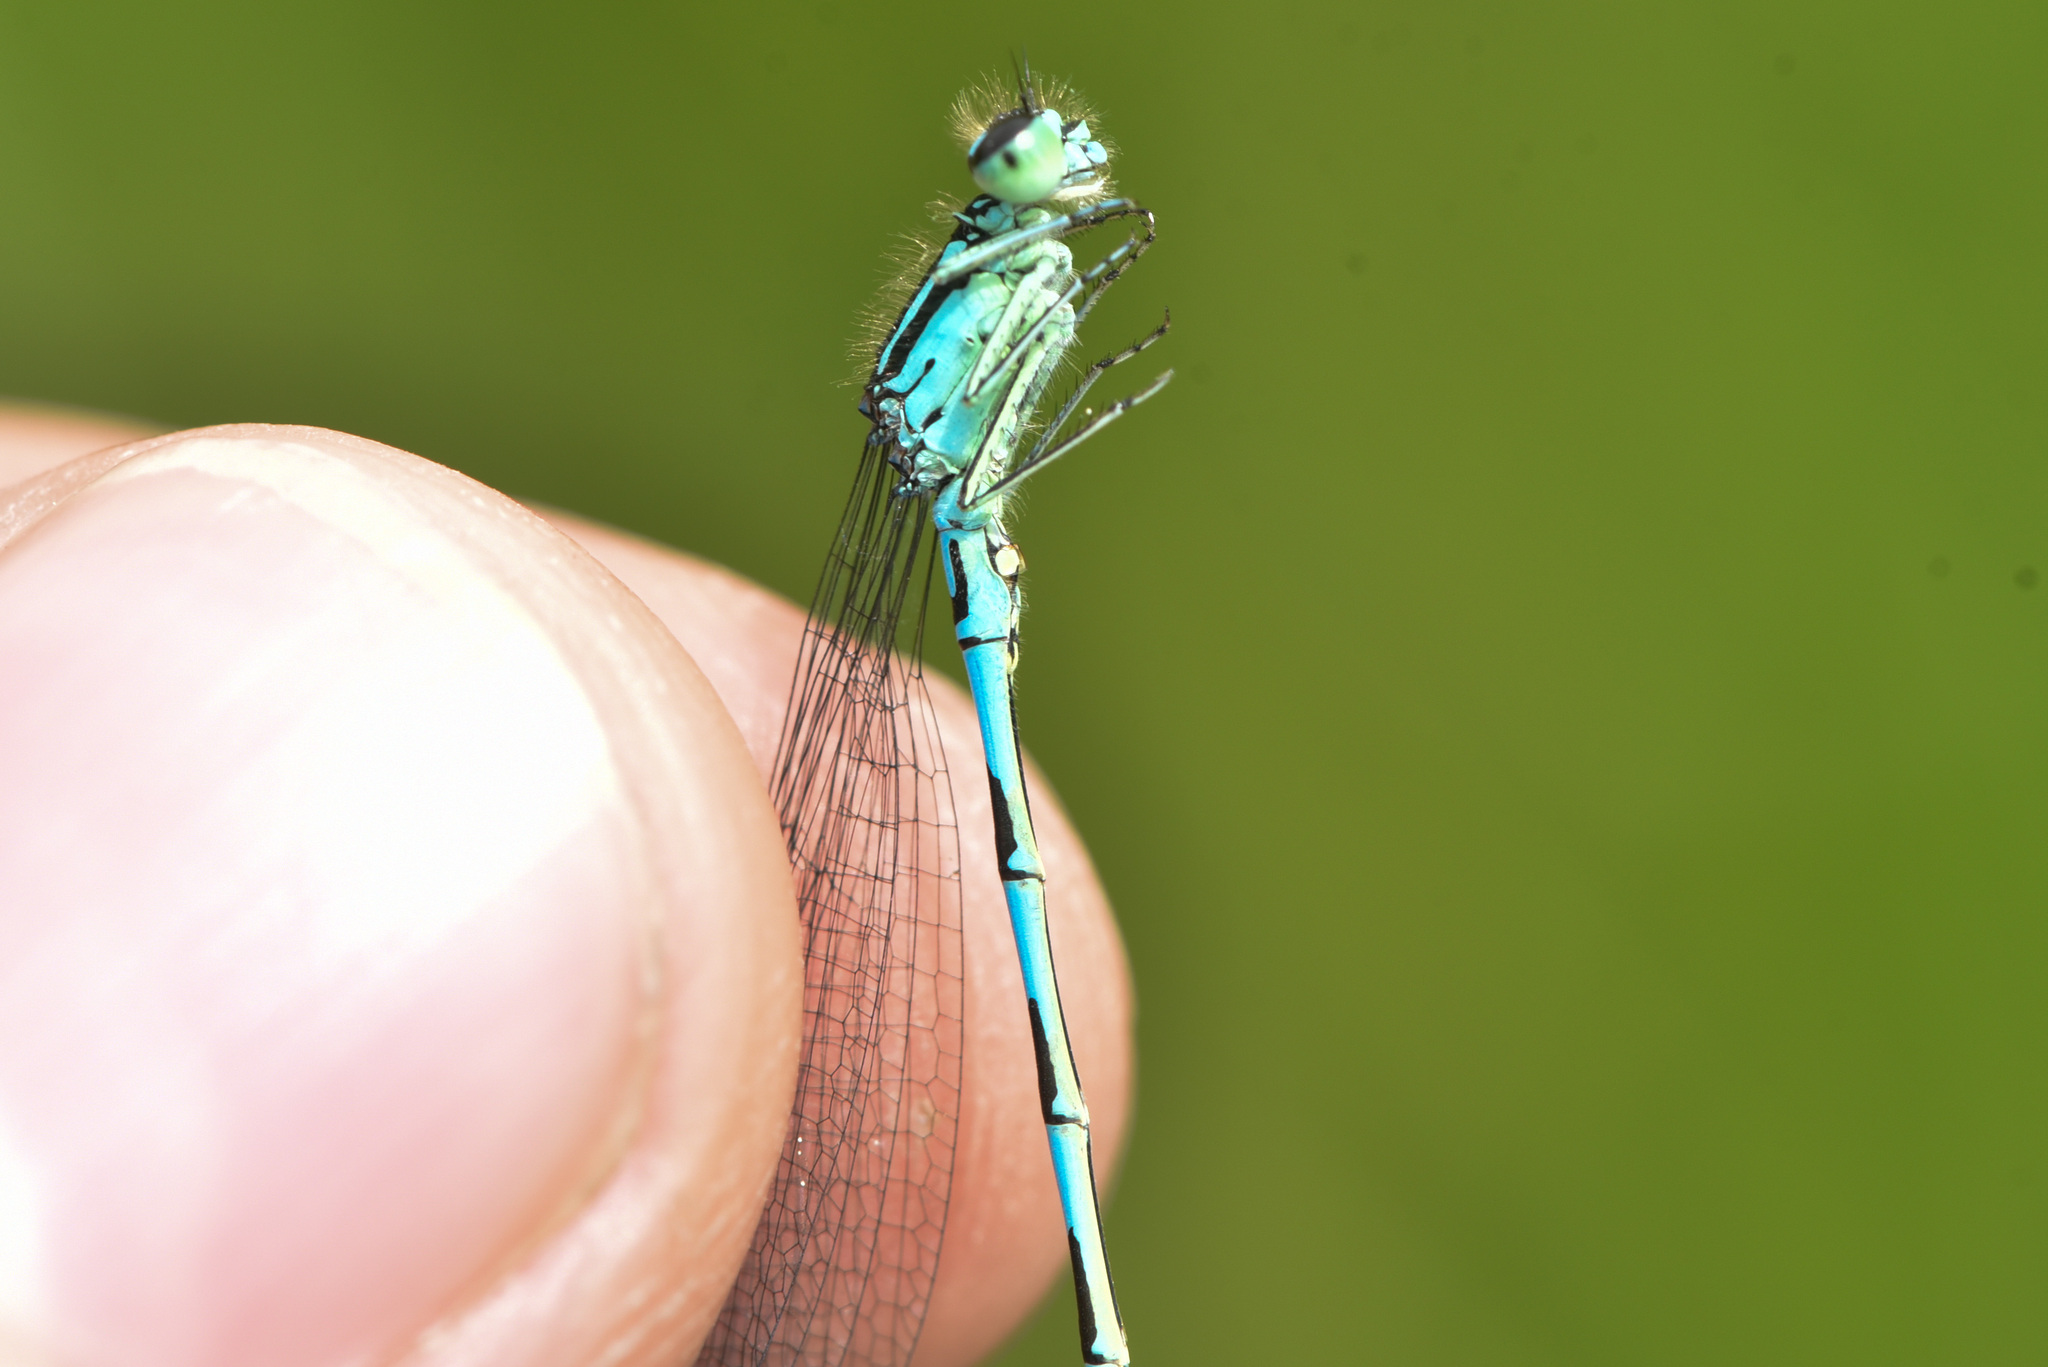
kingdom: Animalia
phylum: Arthropoda
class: Insecta
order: Odonata
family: Coenagrionidae
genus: Coenagrion
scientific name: Coenagrion resolutum
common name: Taiga bluet
